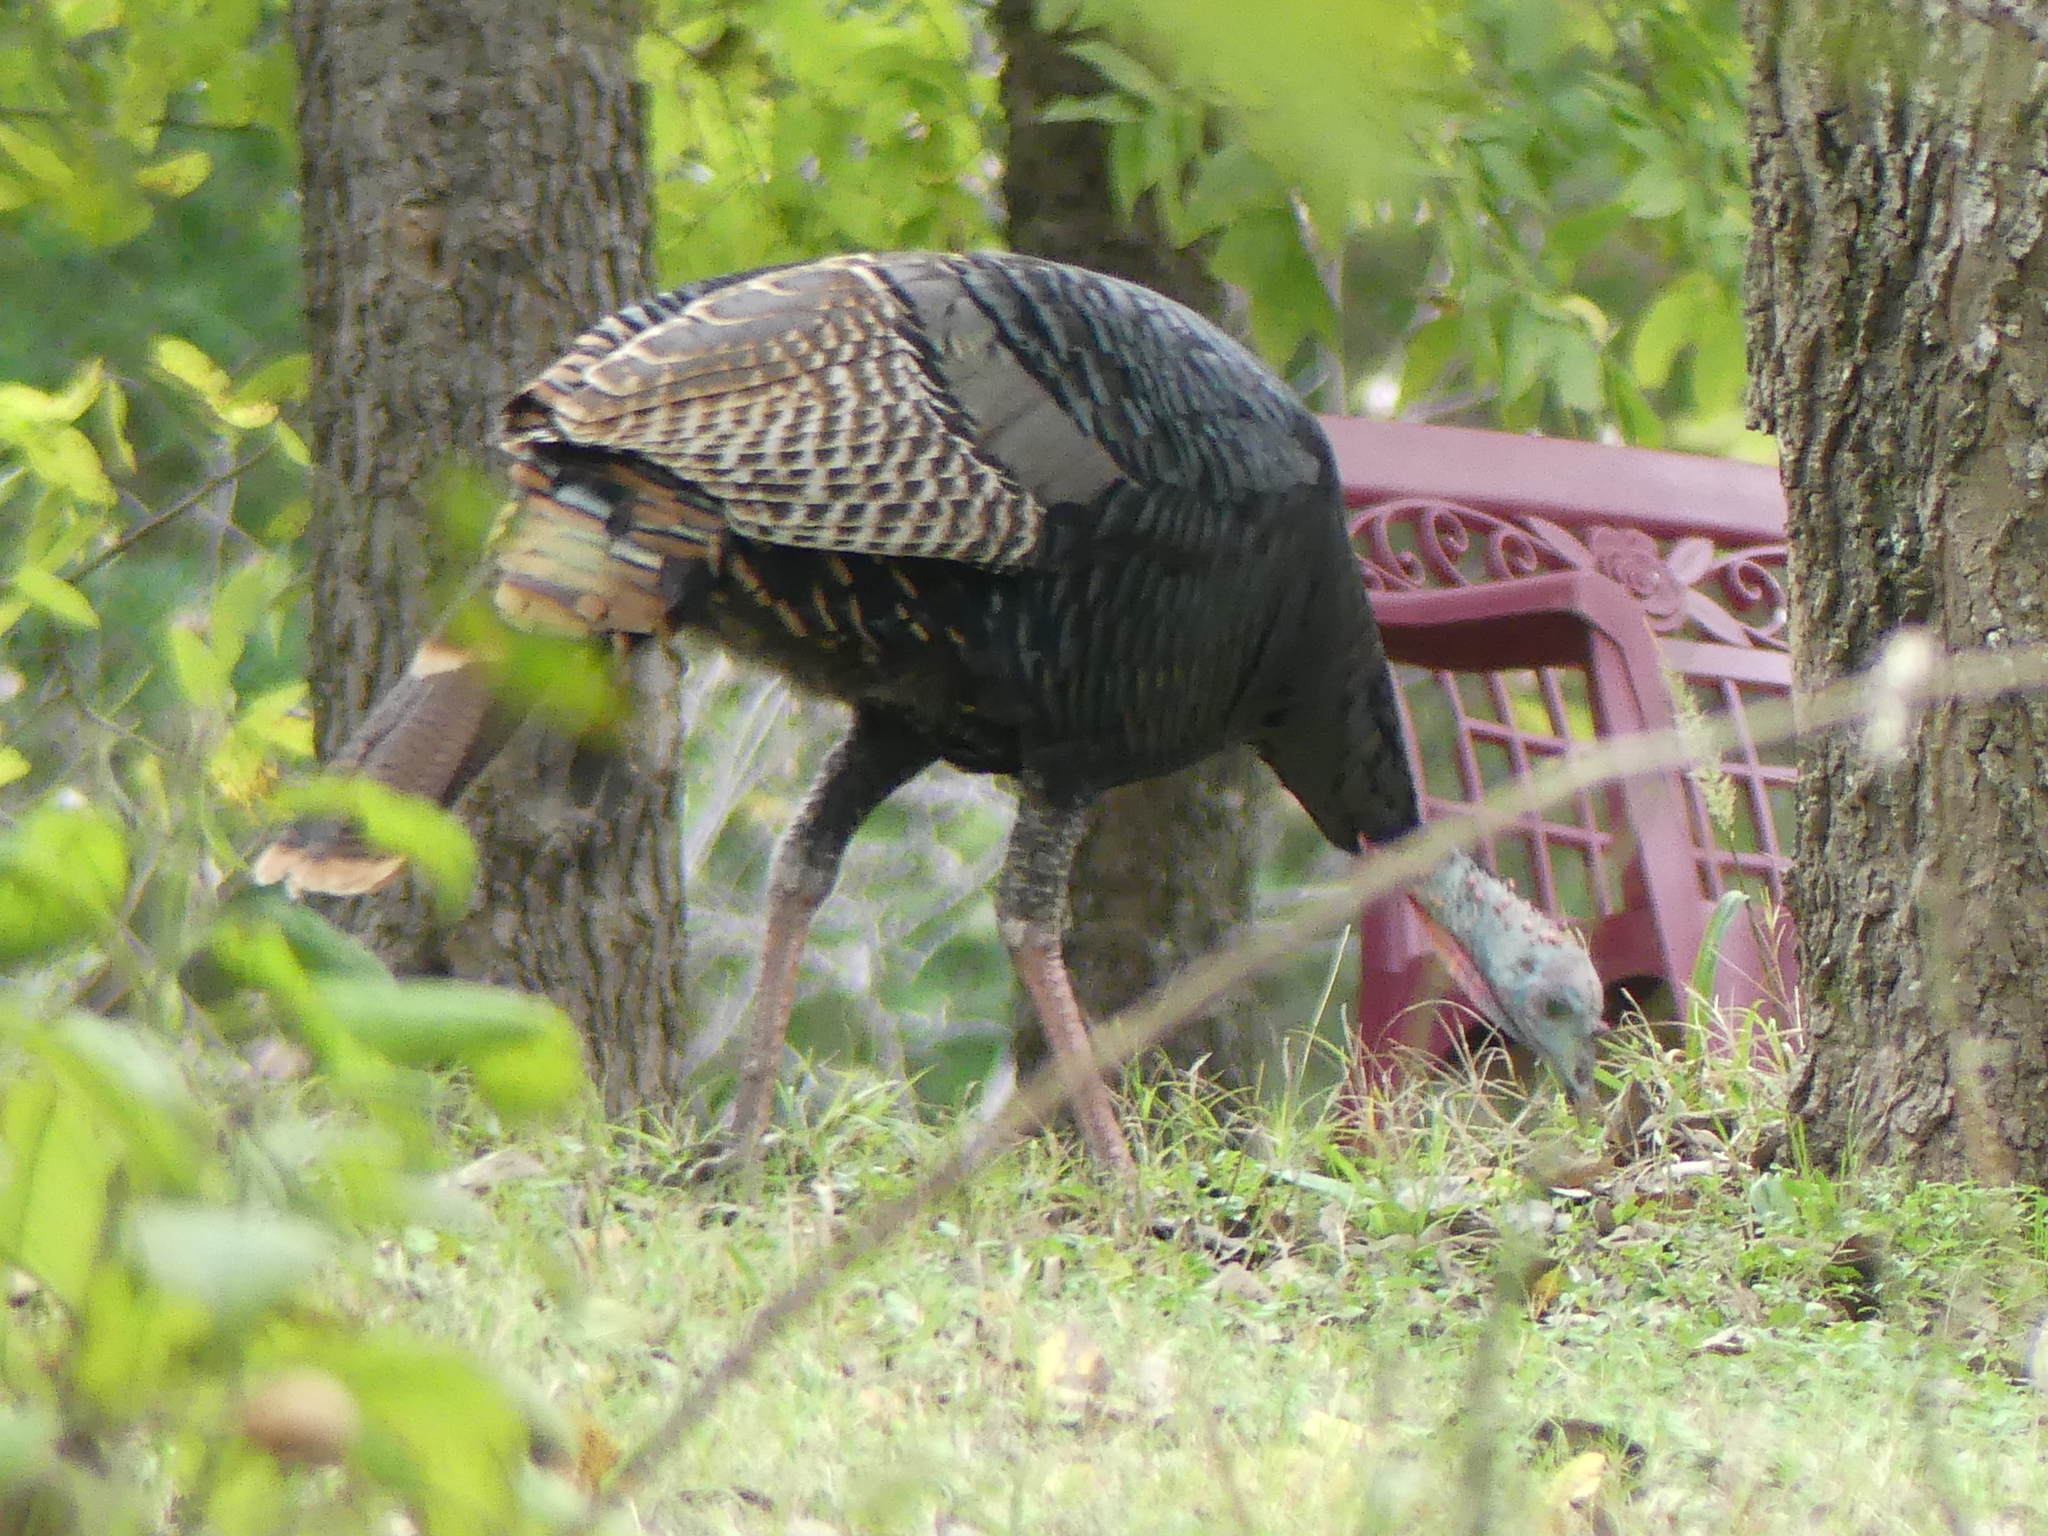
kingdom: Animalia
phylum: Chordata
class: Aves
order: Galliformes
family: Phasianidae
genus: Meleagris
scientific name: Meleagris gallopavo
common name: Wild turkey
